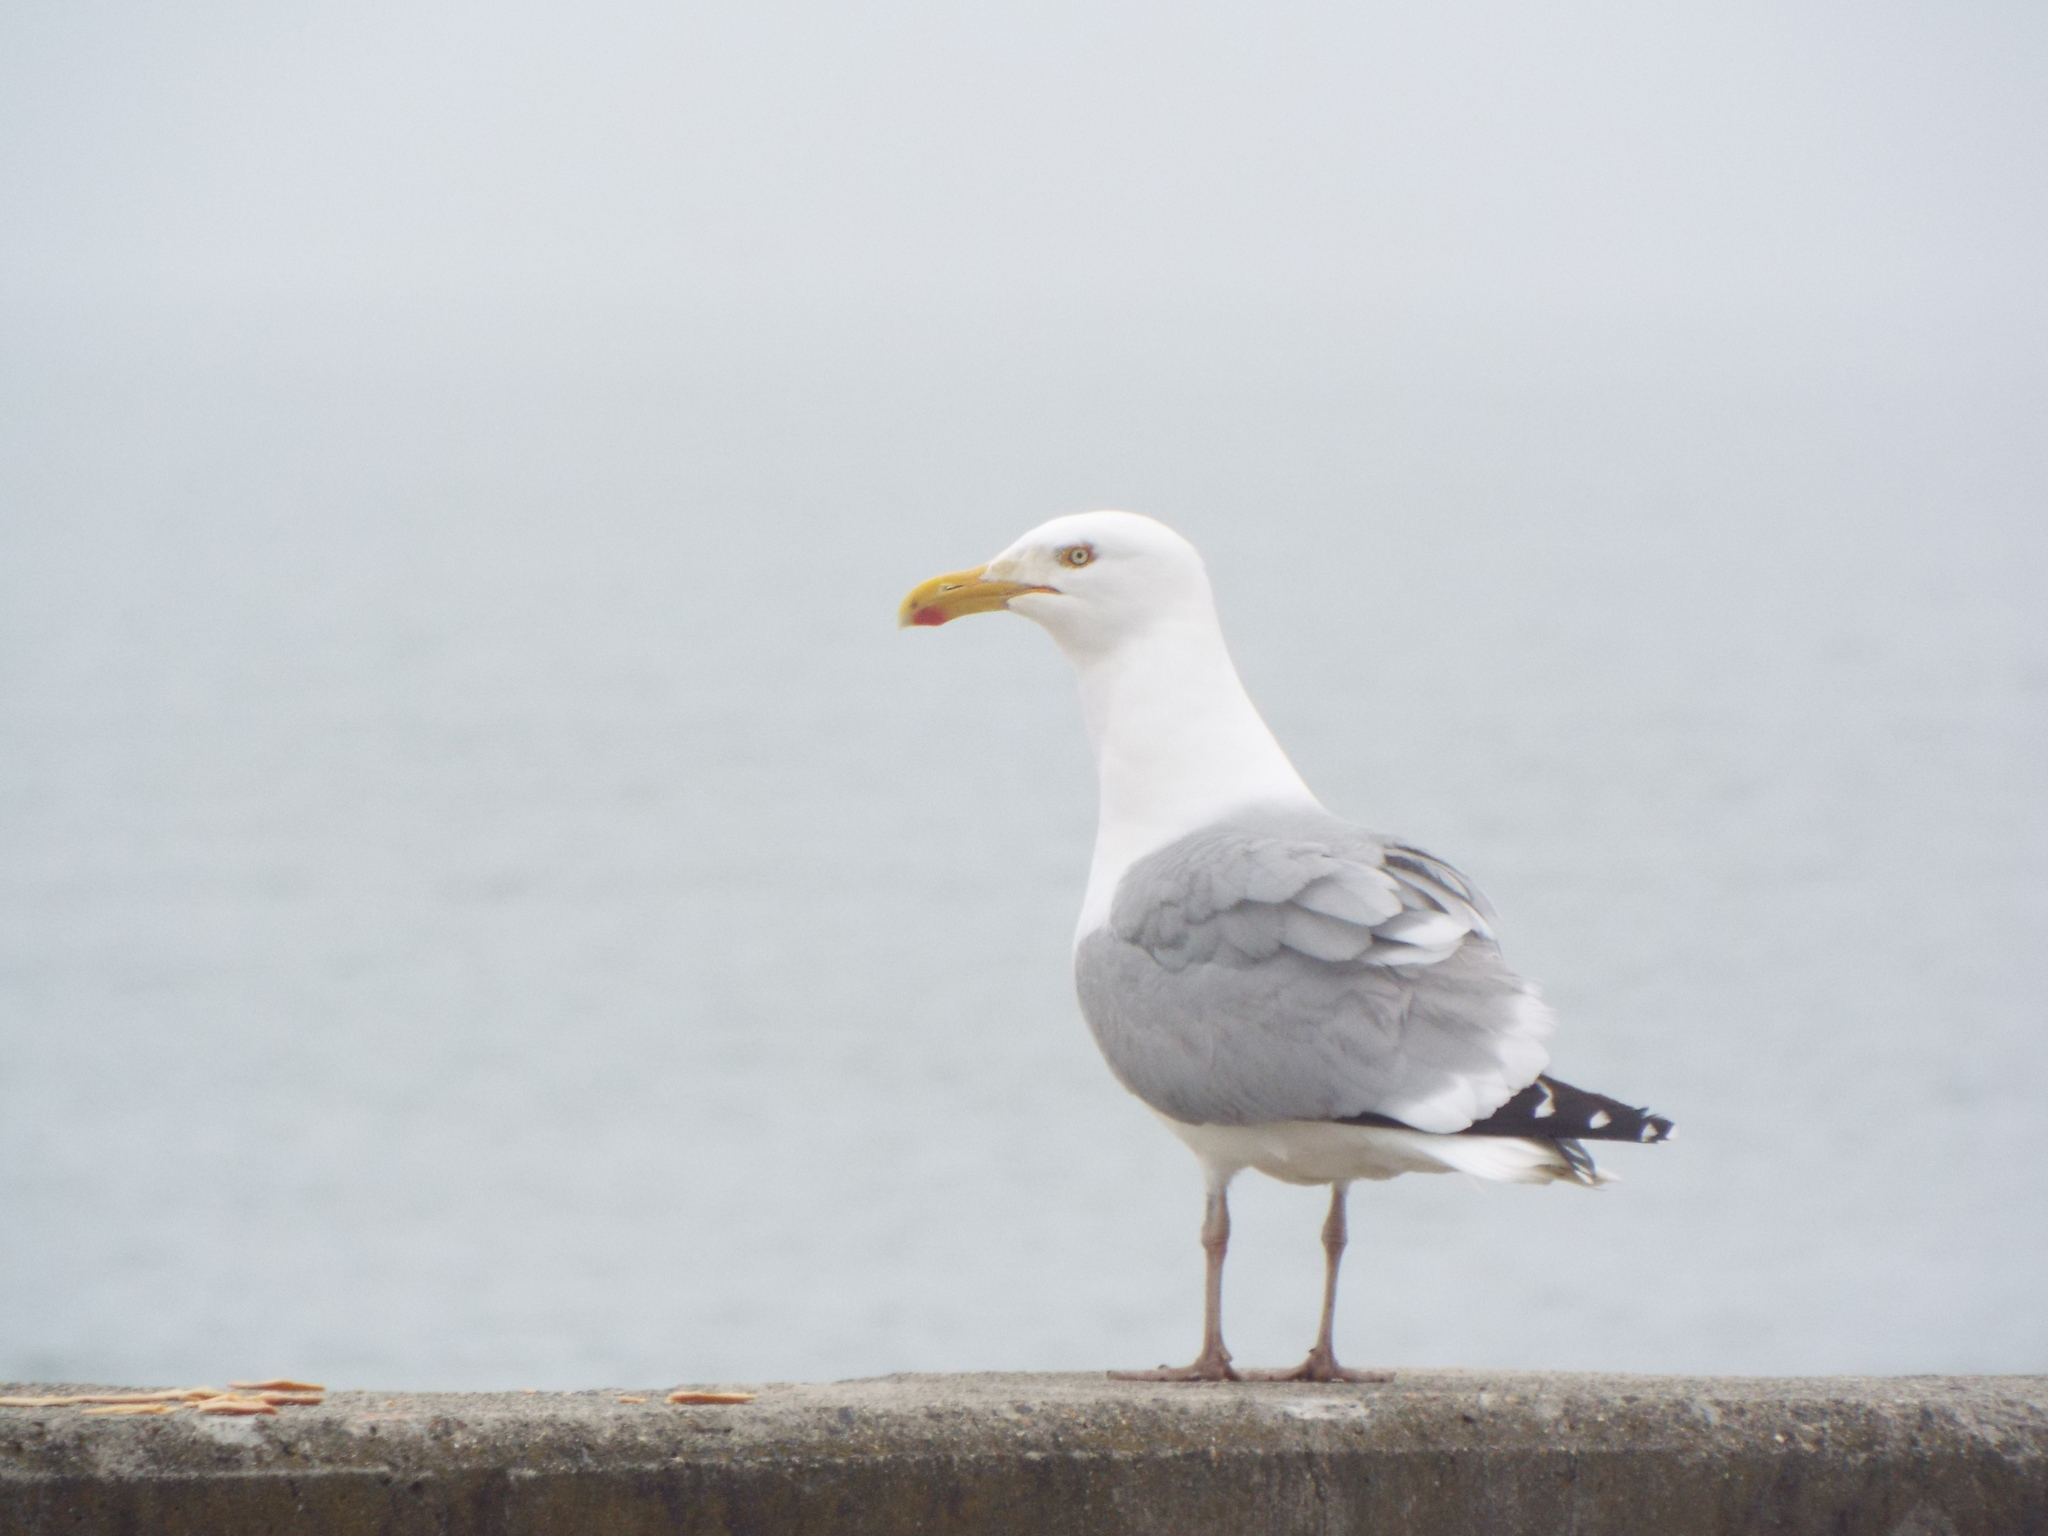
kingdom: Animalia
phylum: Chordata
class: Aves
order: Charadriiformes
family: Laridae
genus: Larus
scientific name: Larus argentatus
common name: Herring gull
